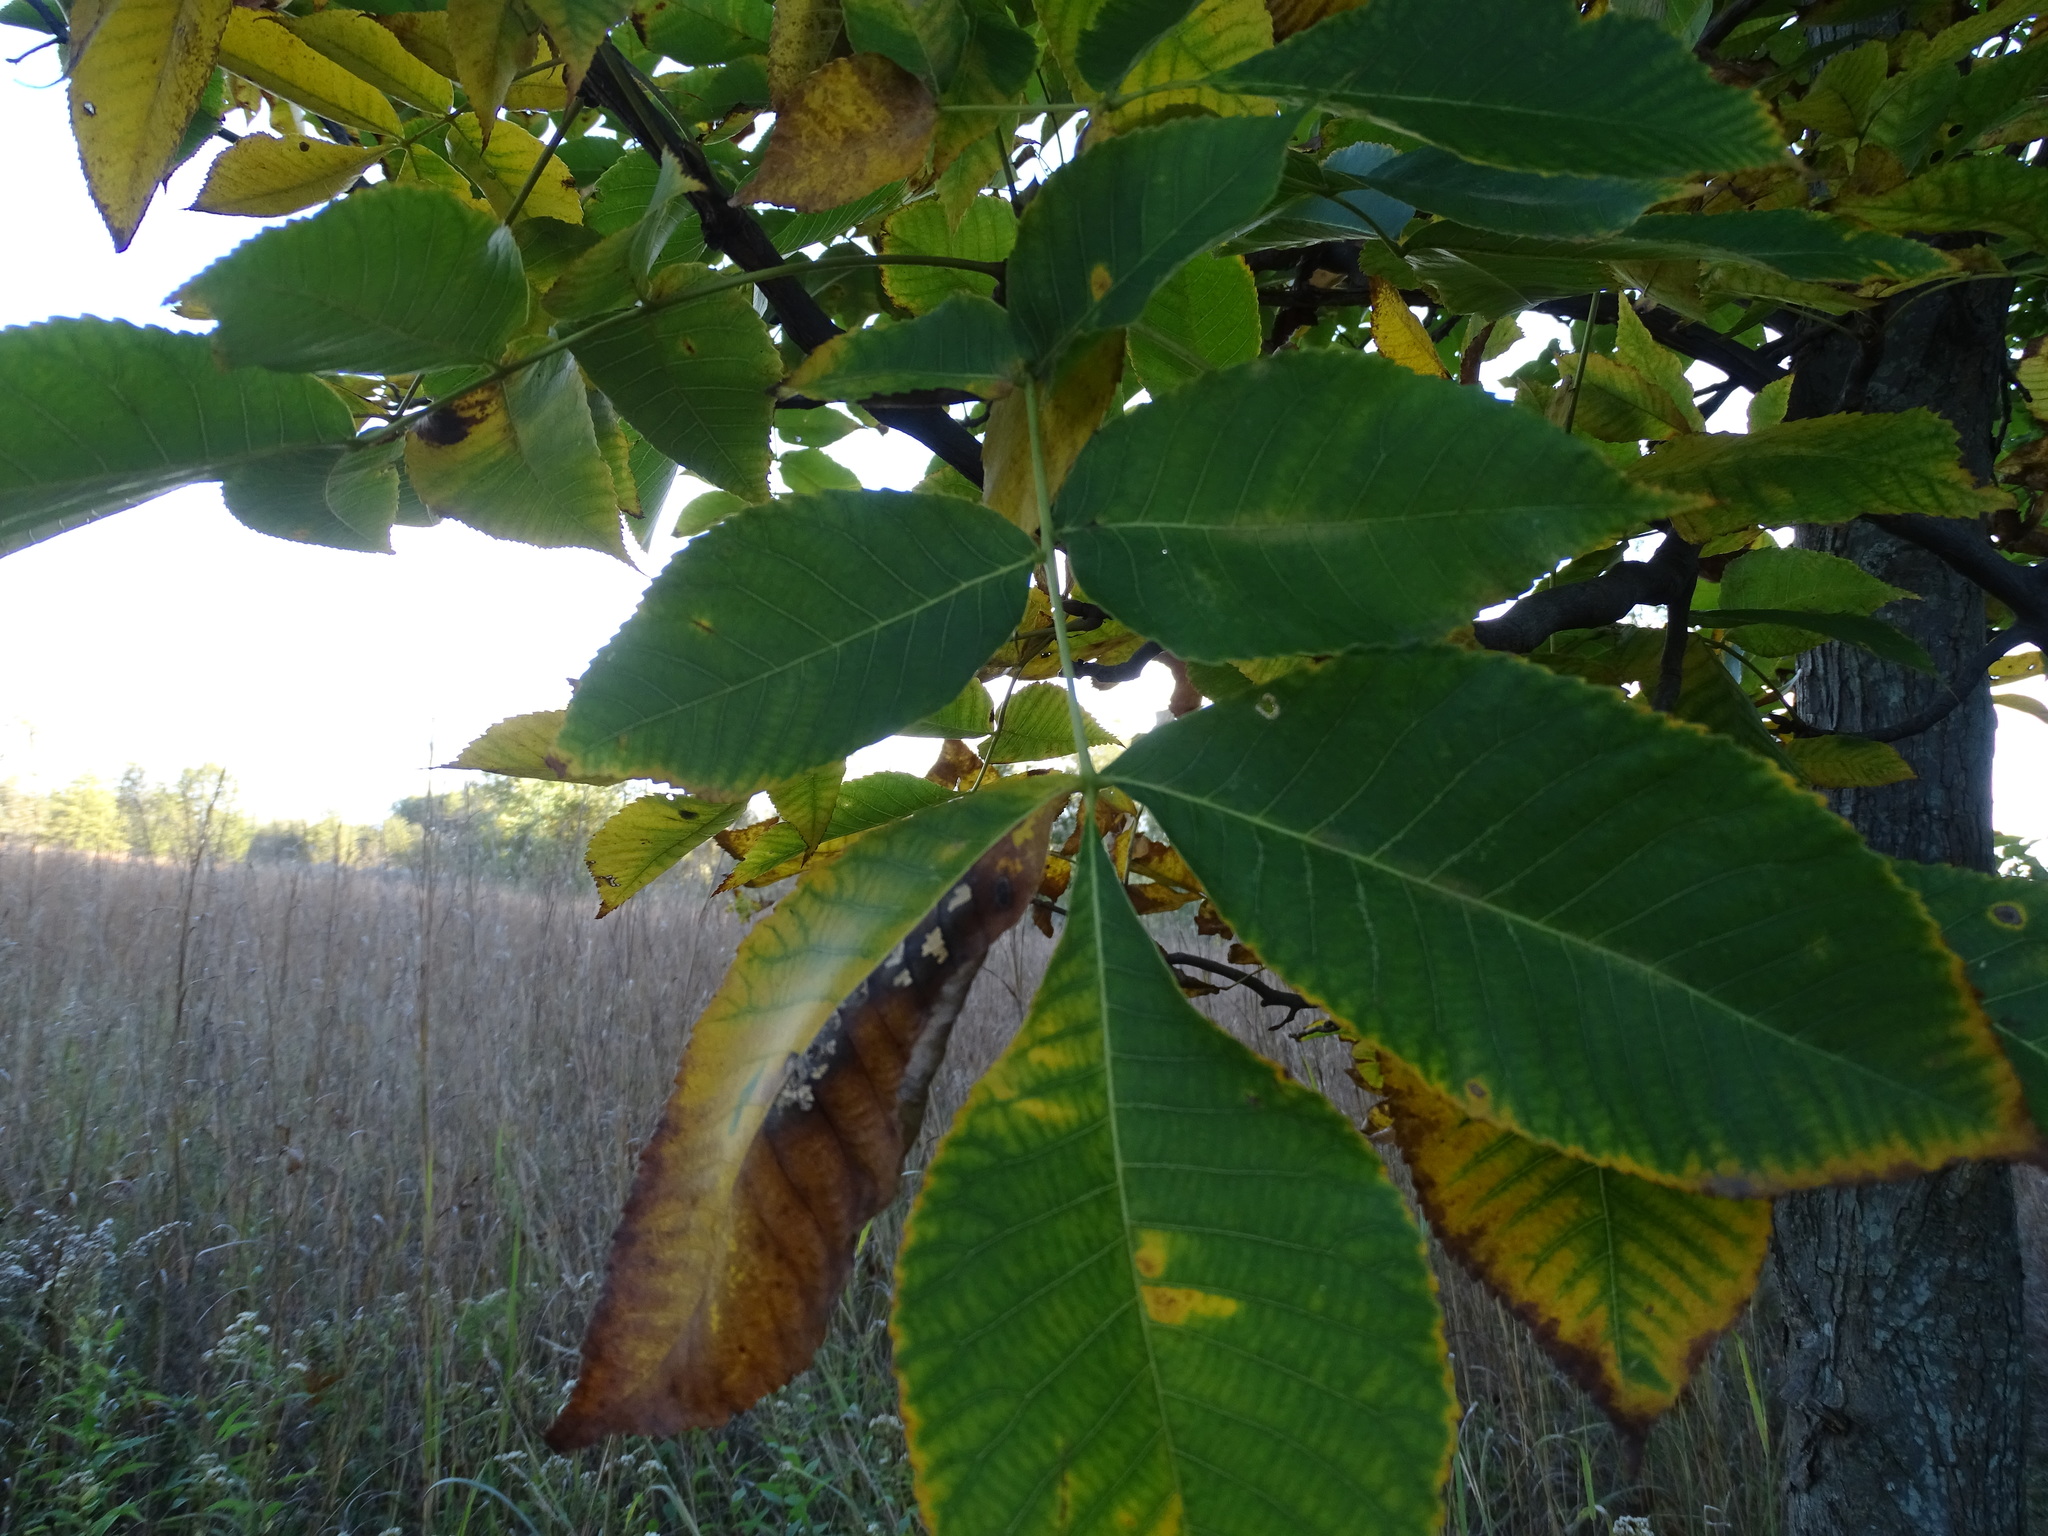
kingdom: Plantae
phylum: Tracheophyta
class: Magnoliopsida
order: Fagales
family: Juglandaceae
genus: Carya
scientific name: Carya glabra
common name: Pignut hickory
